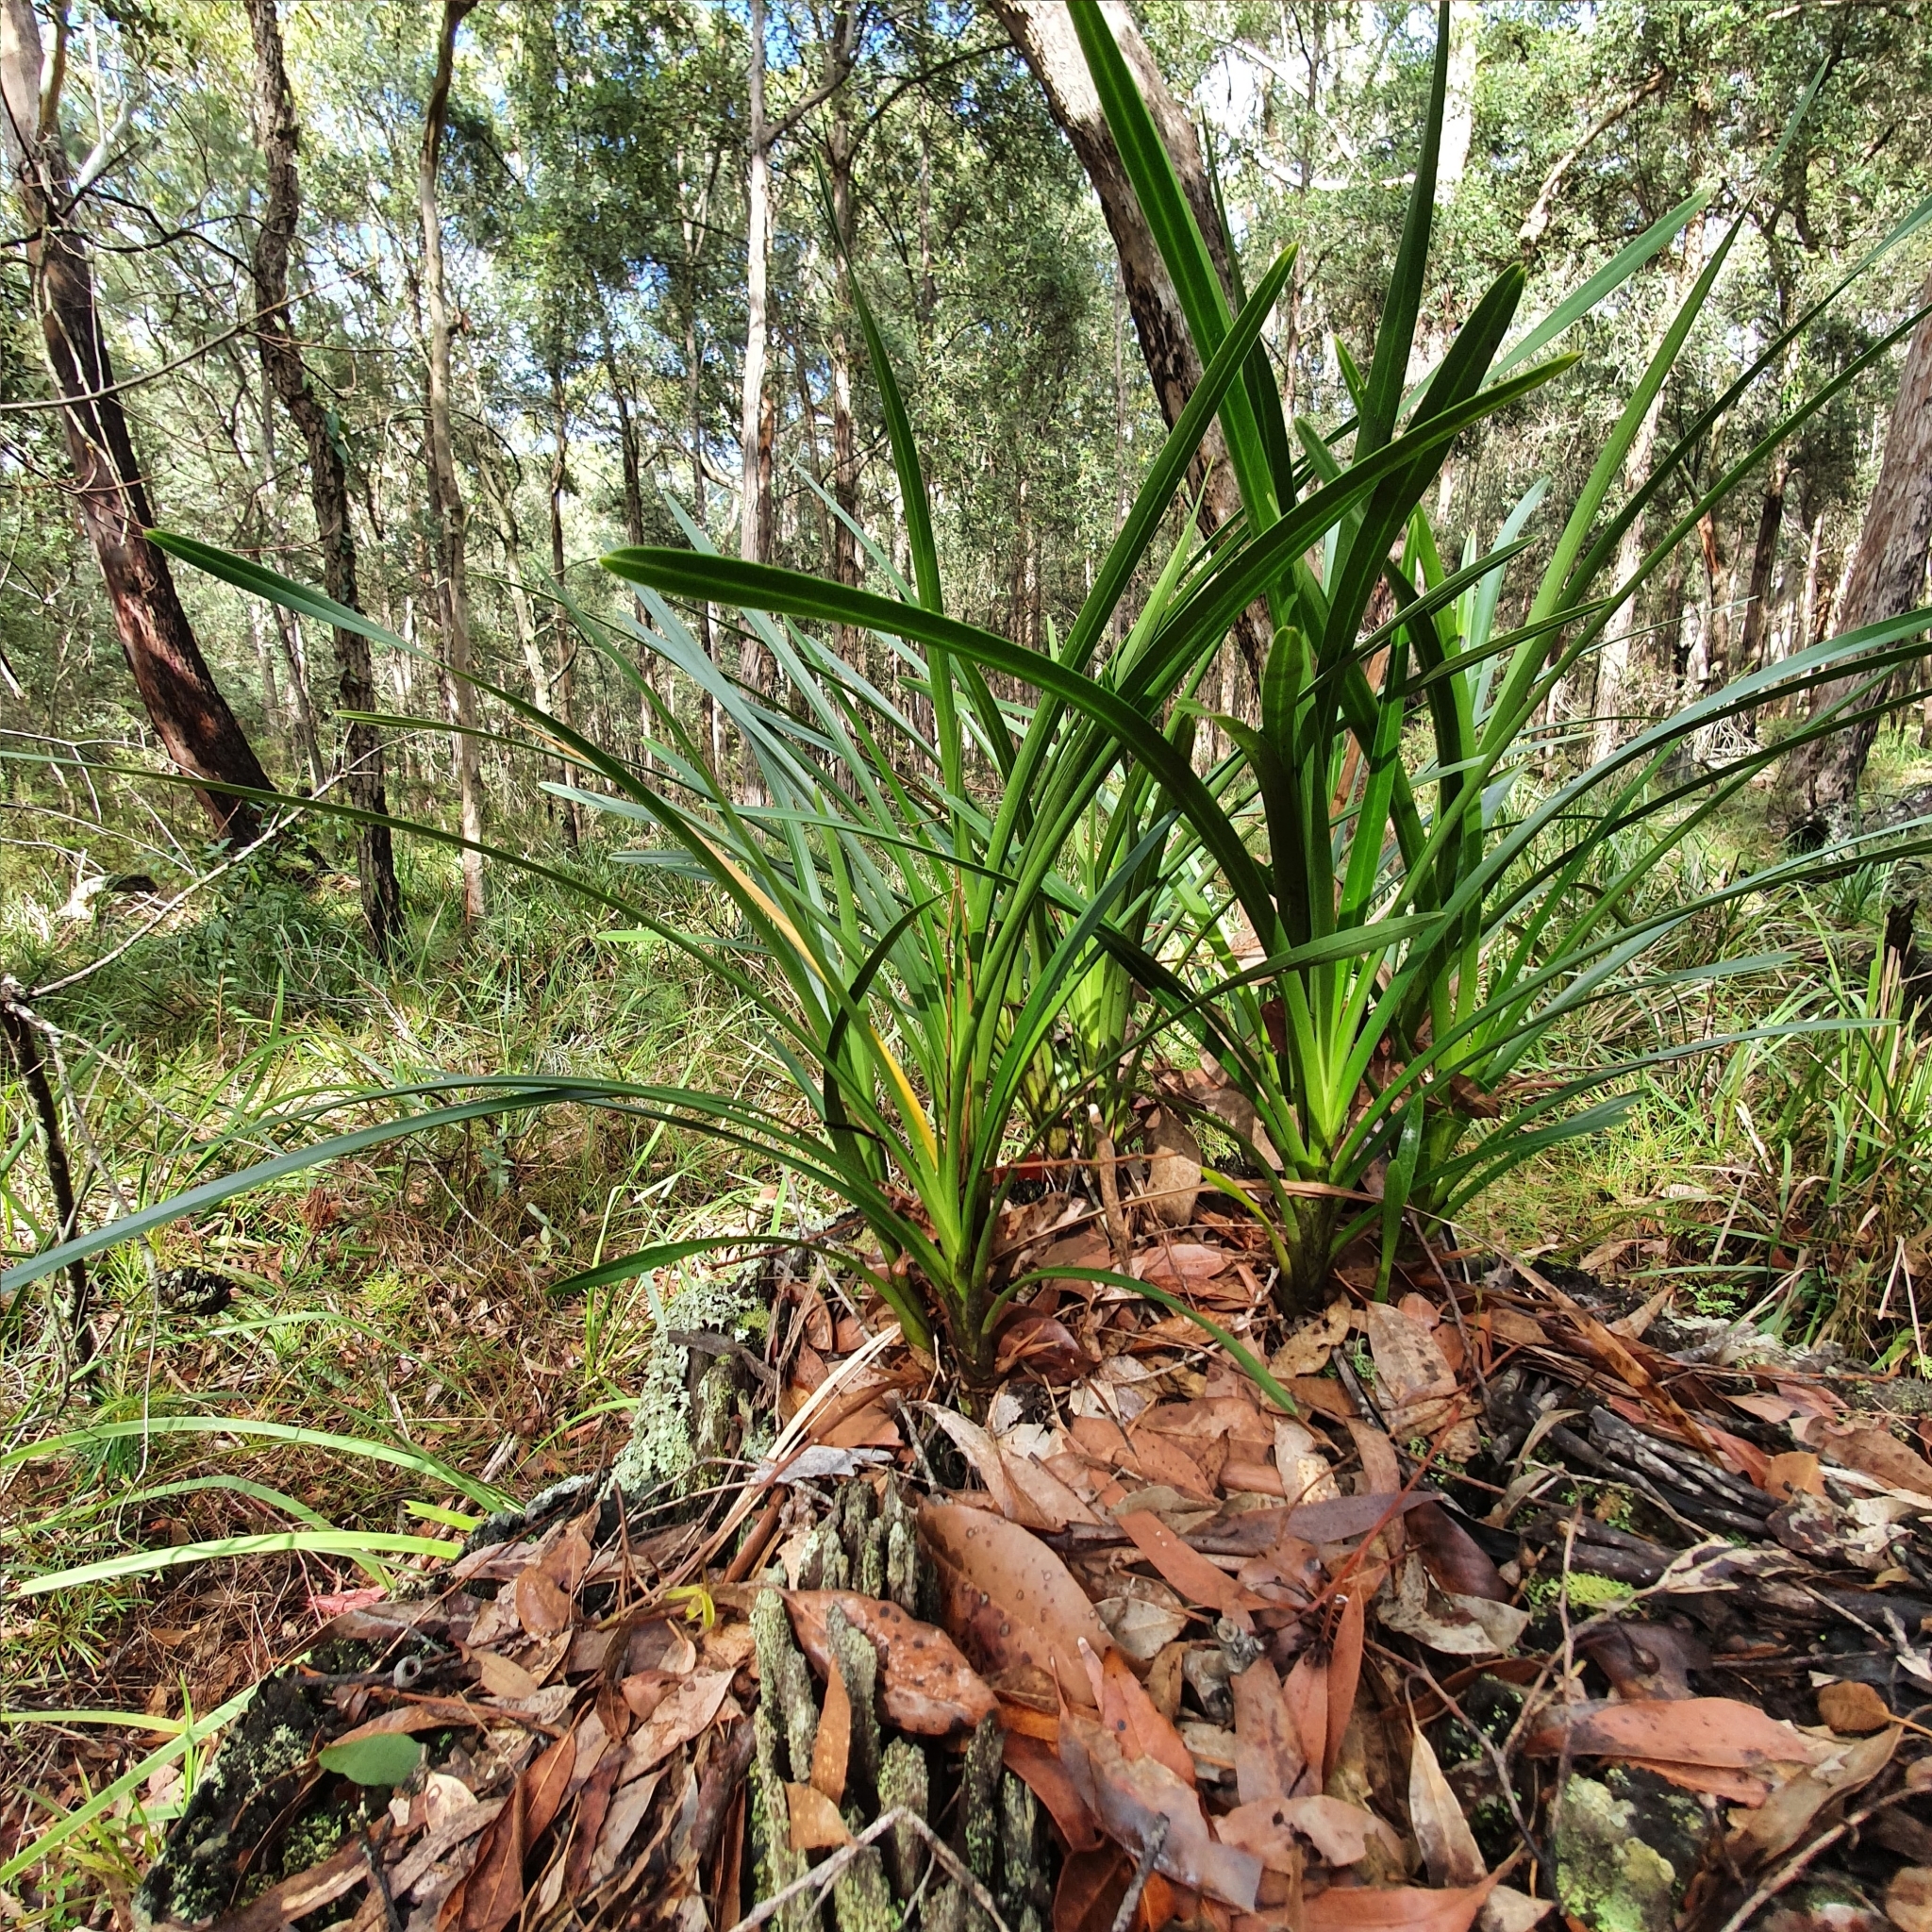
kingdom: Plantae
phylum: Tracheophyta
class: Liliopsida
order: Asparagales
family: Orchidaceae
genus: Cymbidium
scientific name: Cymbidium suave
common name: Snake orchid
